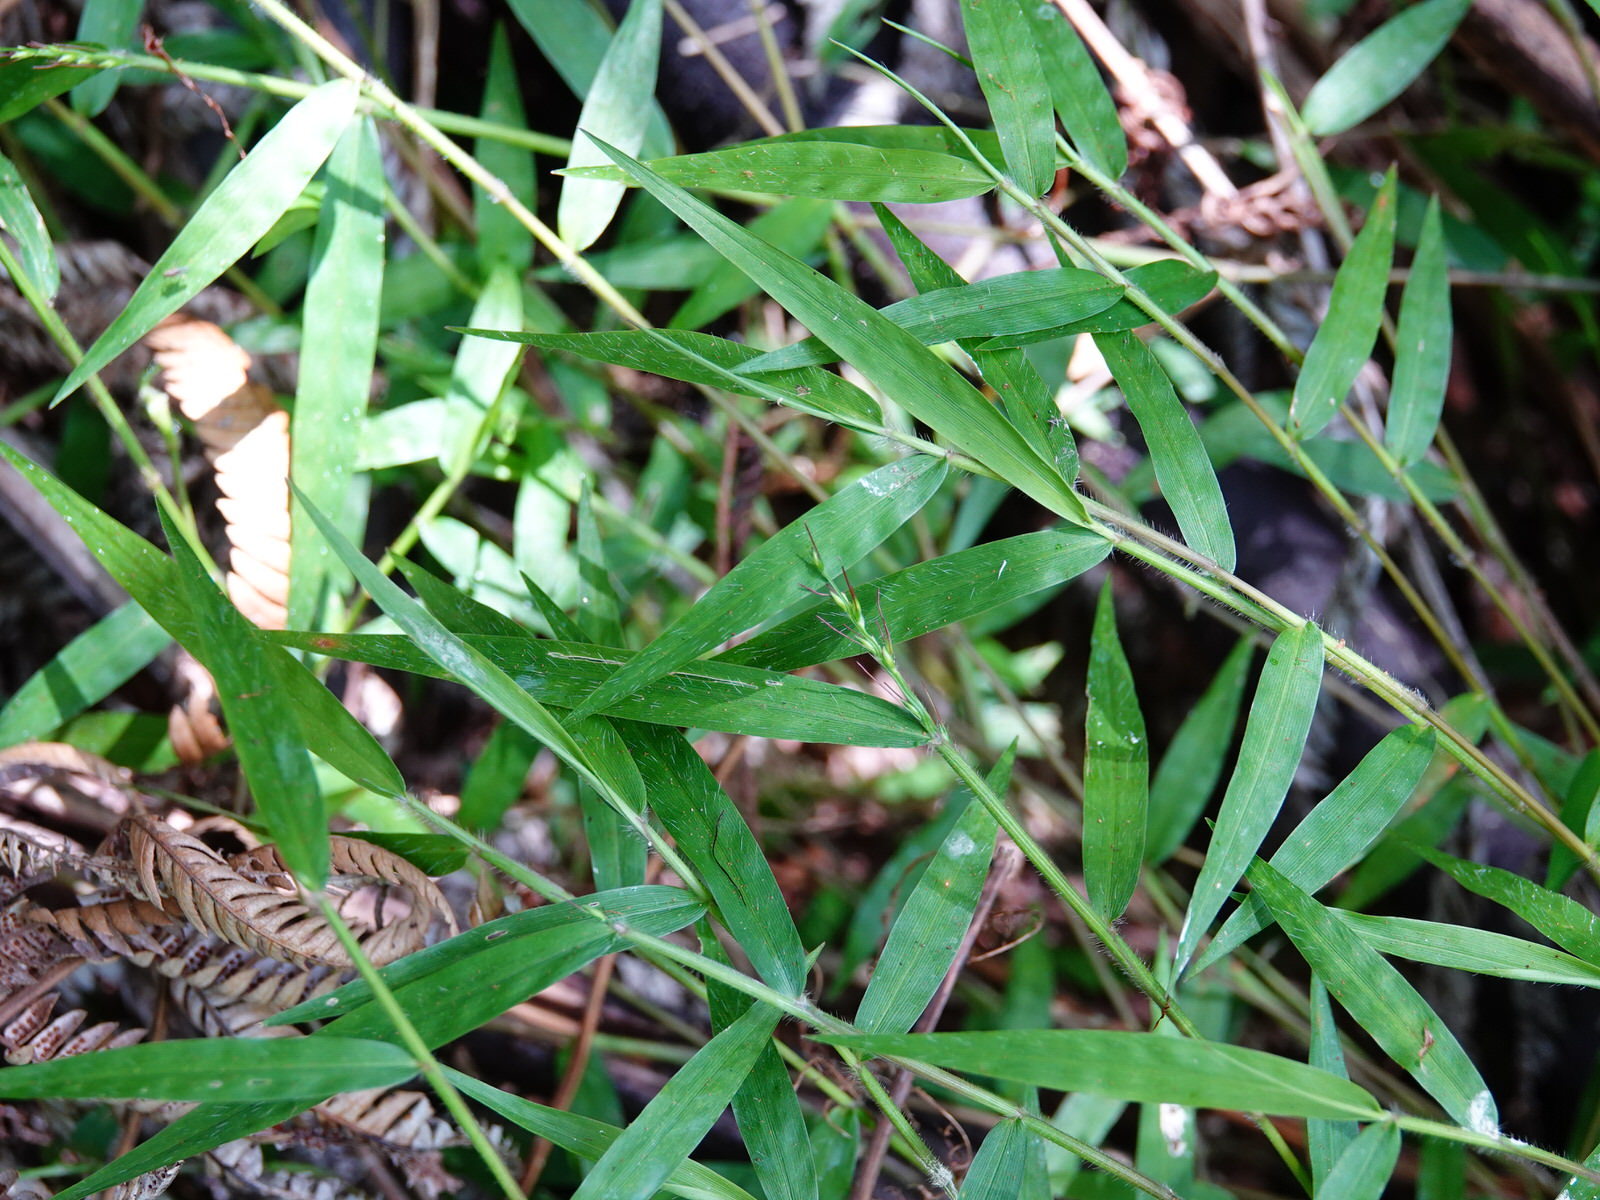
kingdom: Plantae
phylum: Tracheophyta
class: Liliopsida
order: Poales
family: Poaceae
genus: Oplismenus
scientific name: Oplismenus hirtellus
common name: Basketgrass
